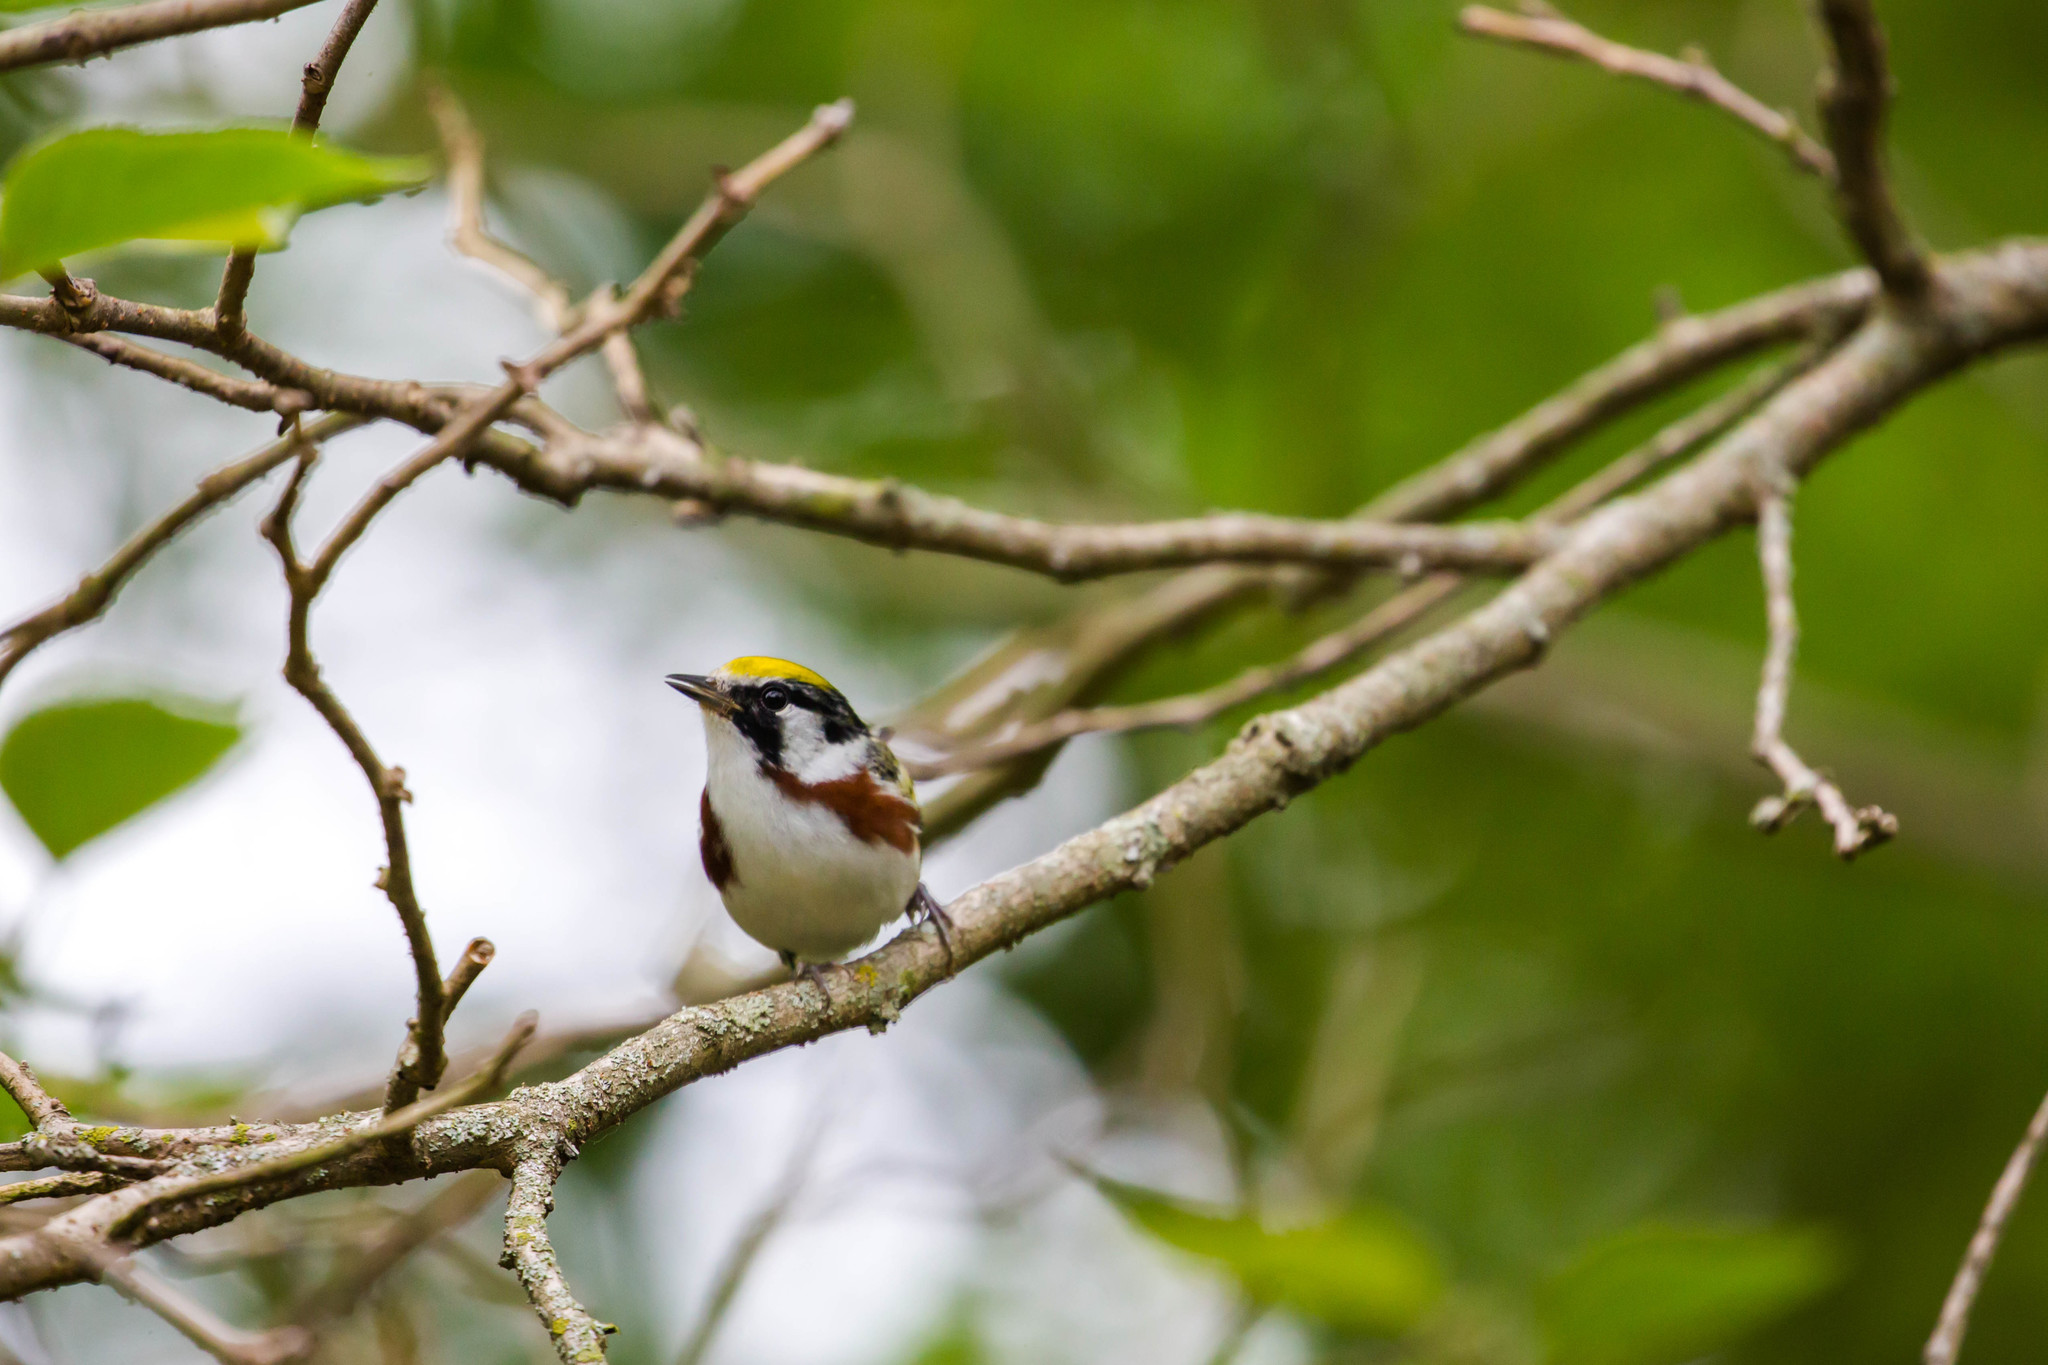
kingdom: Animalia
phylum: Chordata
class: Aves
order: Passeriformes
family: Parulidae
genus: Setophaga
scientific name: Setophaga pensylvanica
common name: Chestnut-sided warbler
